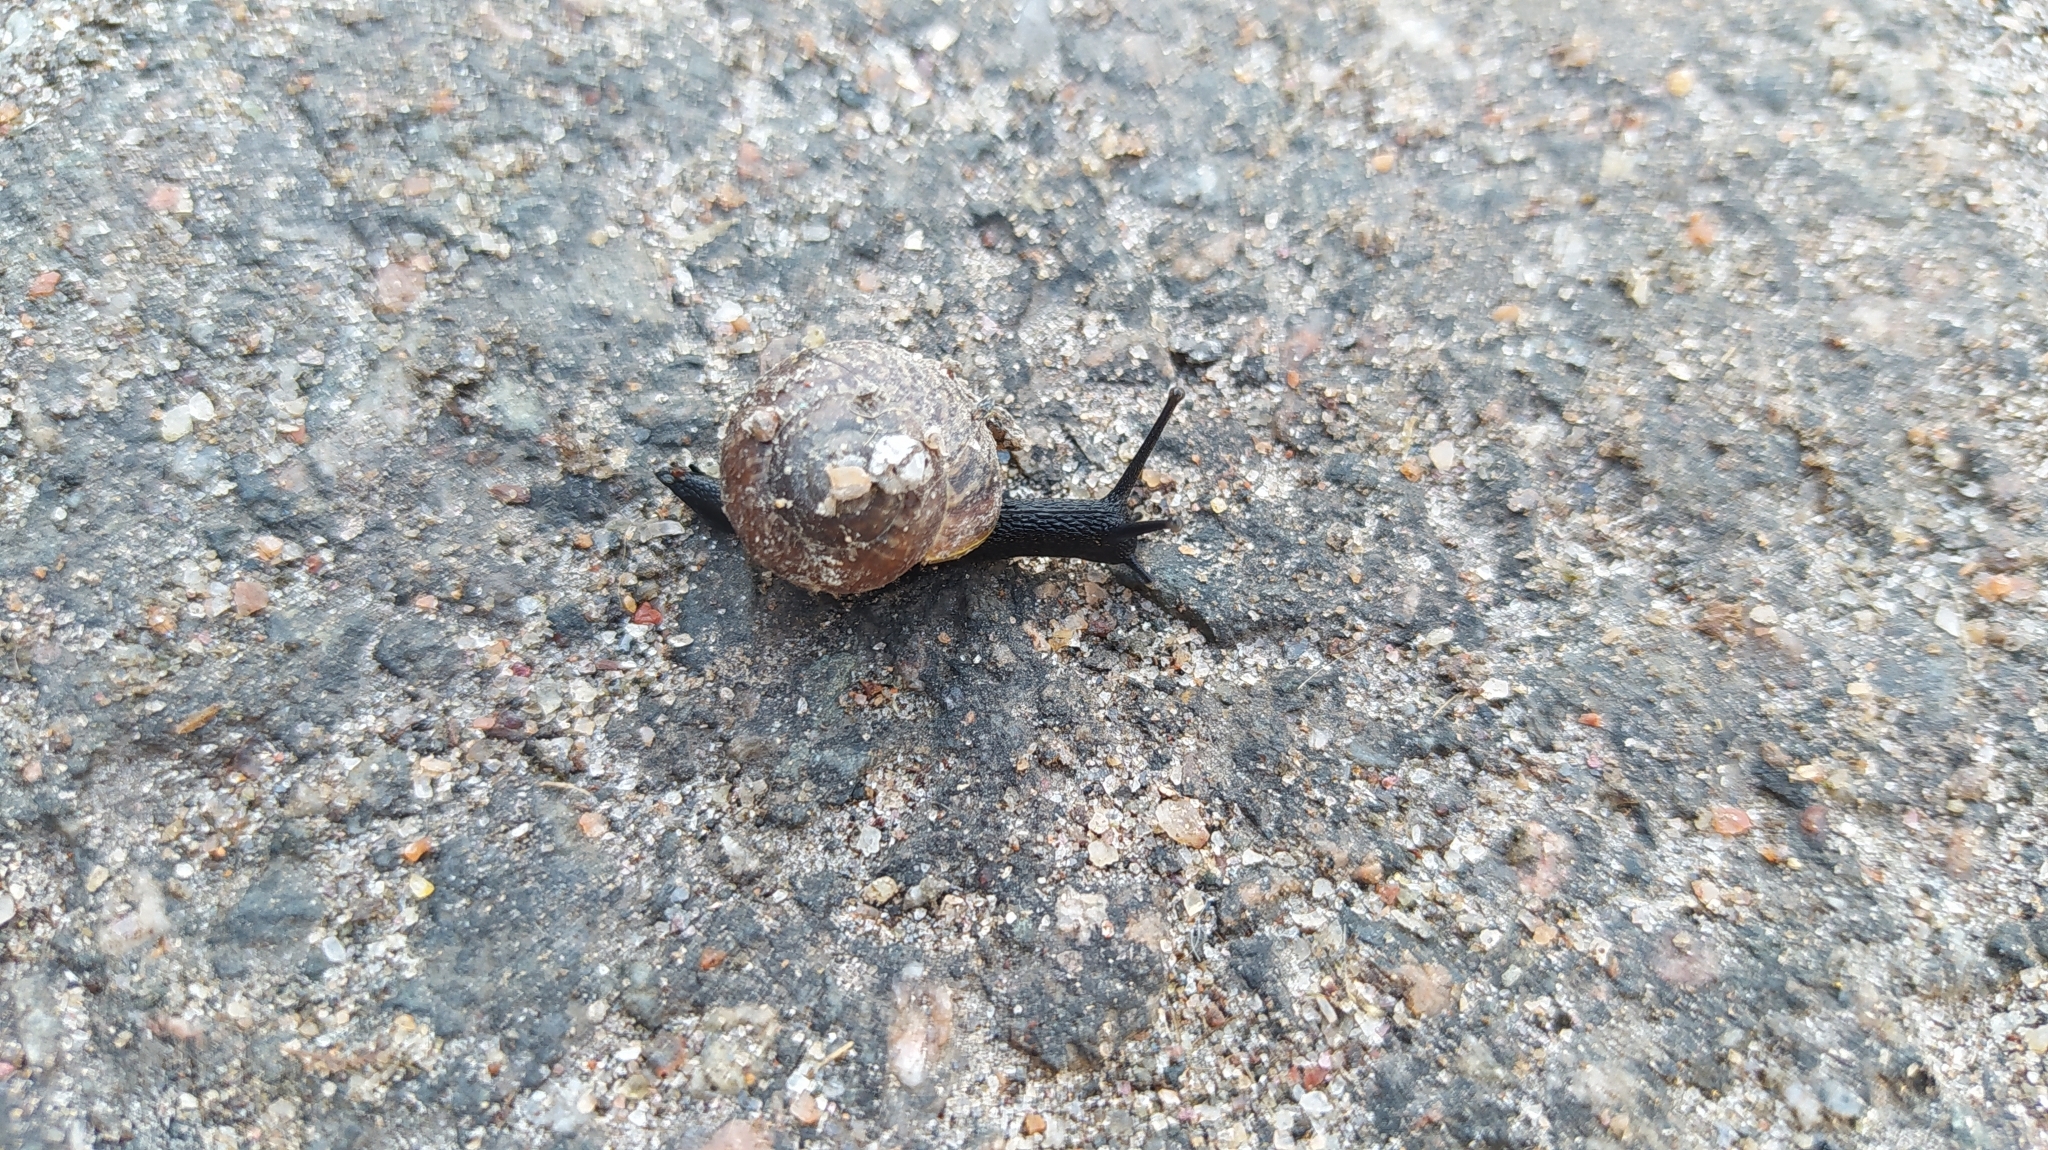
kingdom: Animalia
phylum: Mollusca
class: Gastropoda
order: Stylommatophora
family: Helicidae
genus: Arianta
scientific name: Arianta arbustorum
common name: Copse snail
